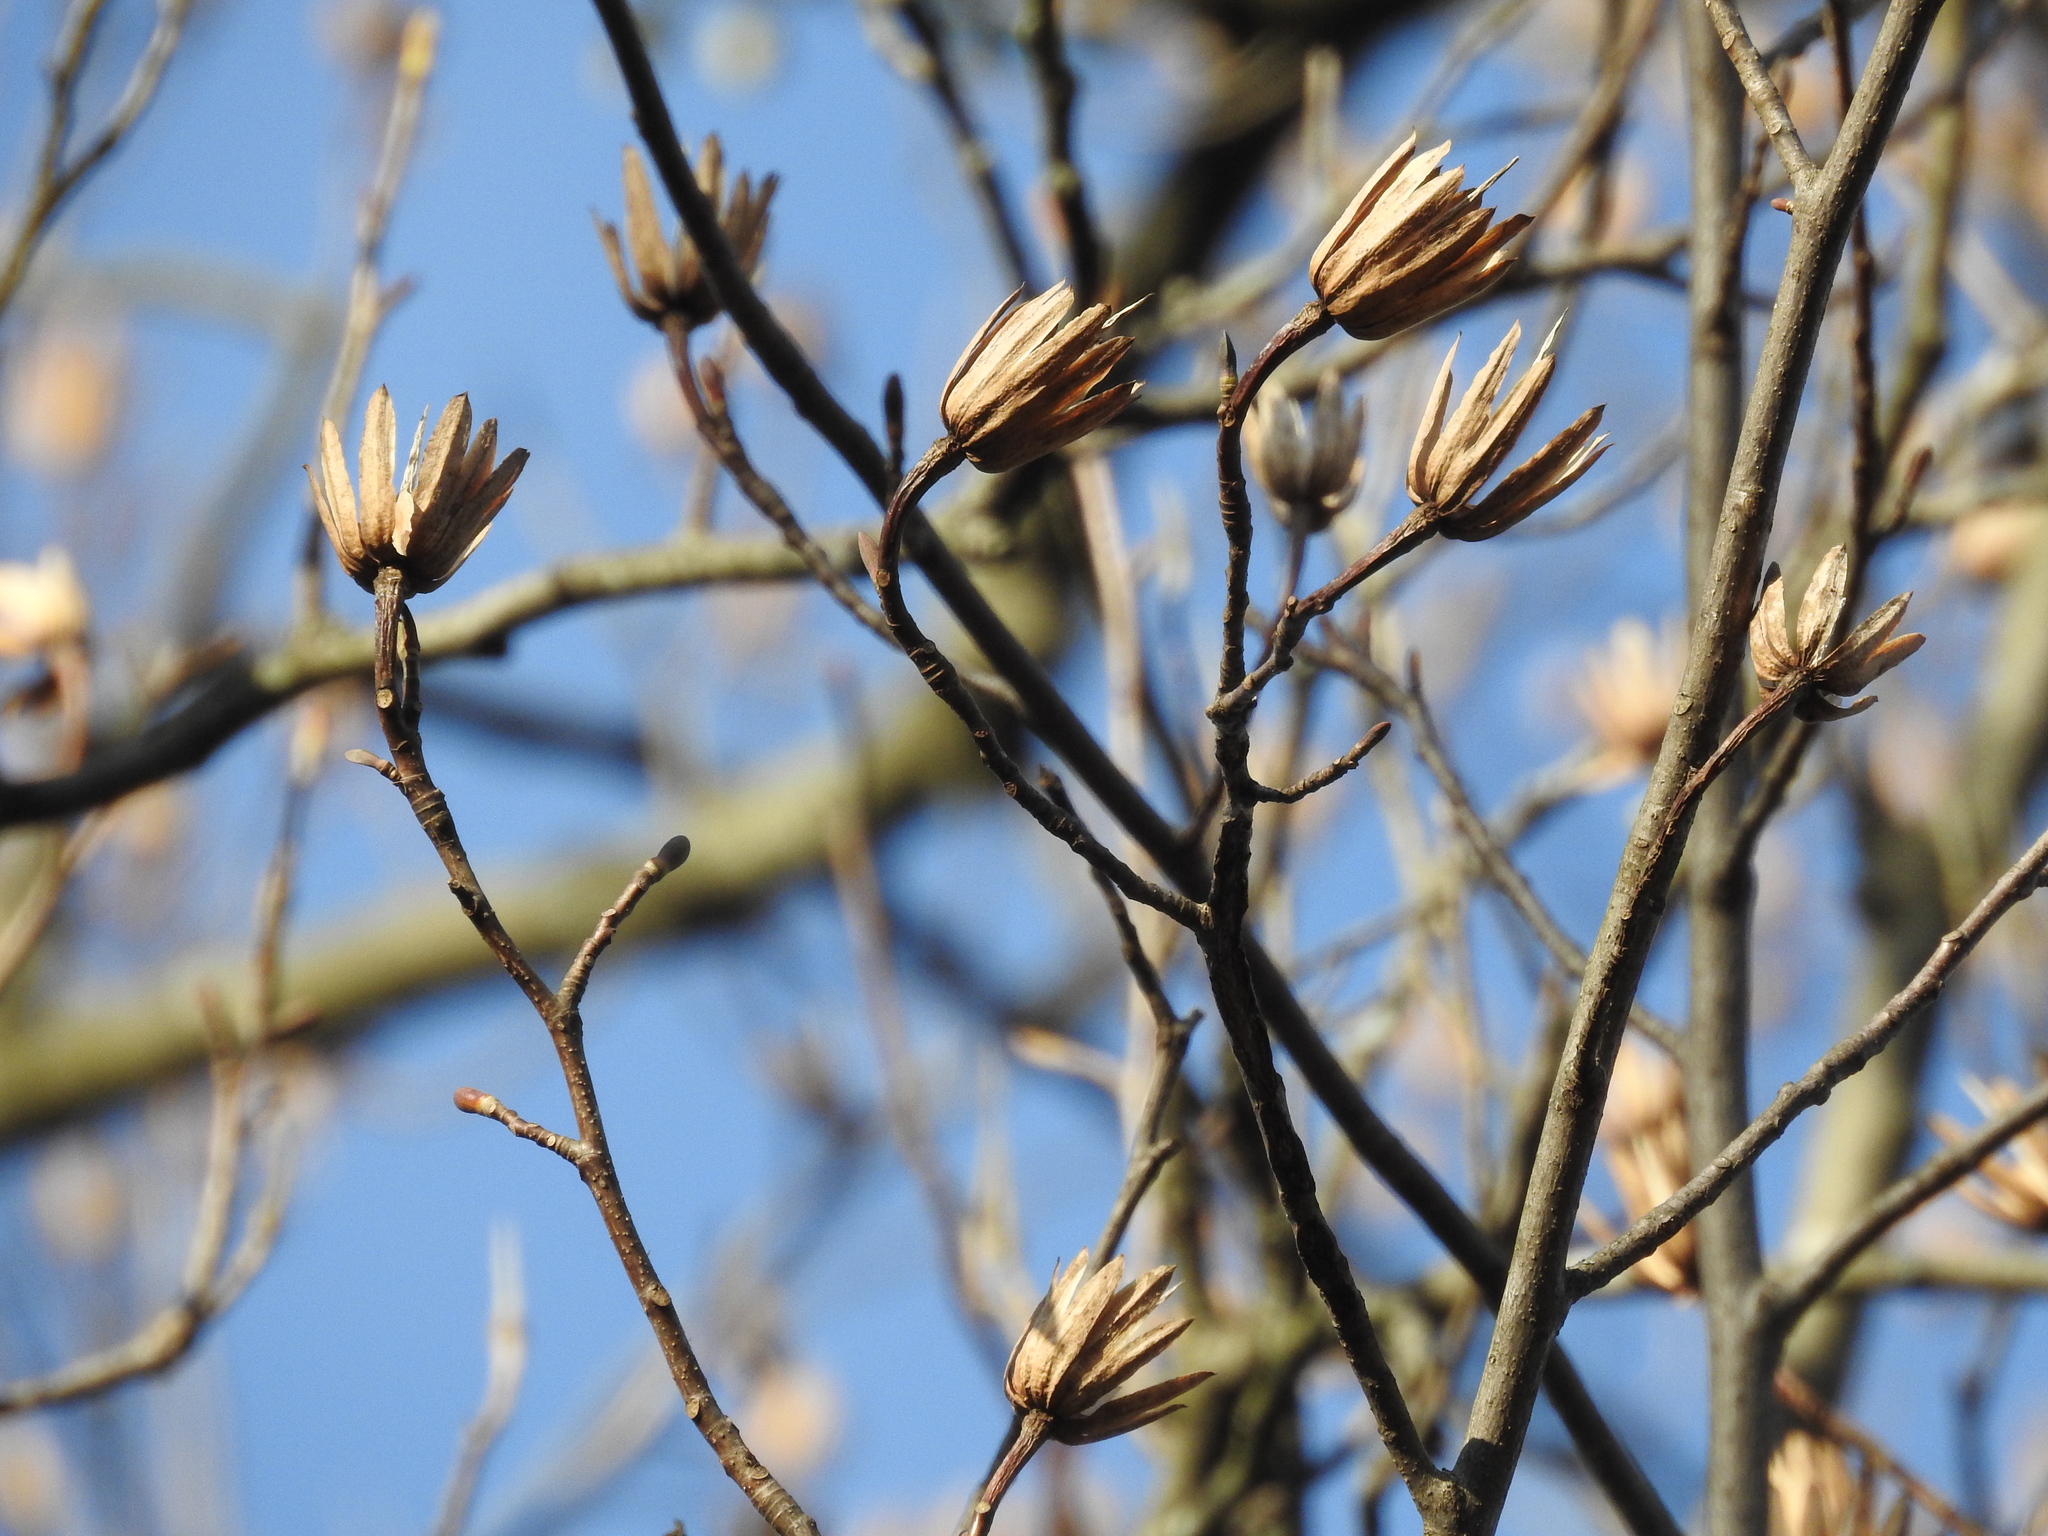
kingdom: Plantae
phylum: Tracheophyta
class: Magnoliopsida
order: Magnoliales
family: Magnoliaceae
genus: Liriodendron
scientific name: Liriodendron tulipifera
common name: Tulip tree
